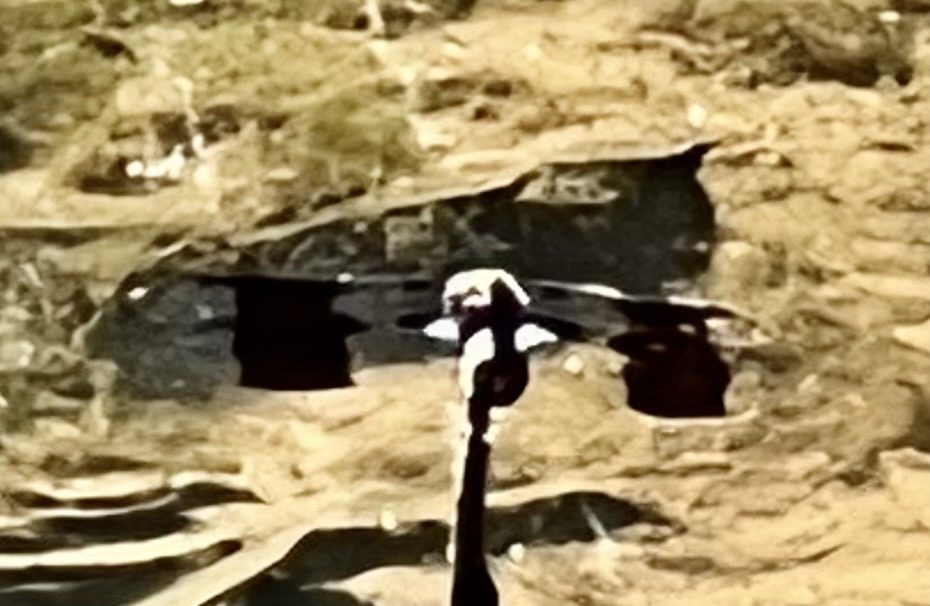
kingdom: Animalia
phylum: Arthropoda
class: Insecta
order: Odonata
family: Libellulidae
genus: Plathemis
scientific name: Plathemis lydia
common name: Common whitetail
